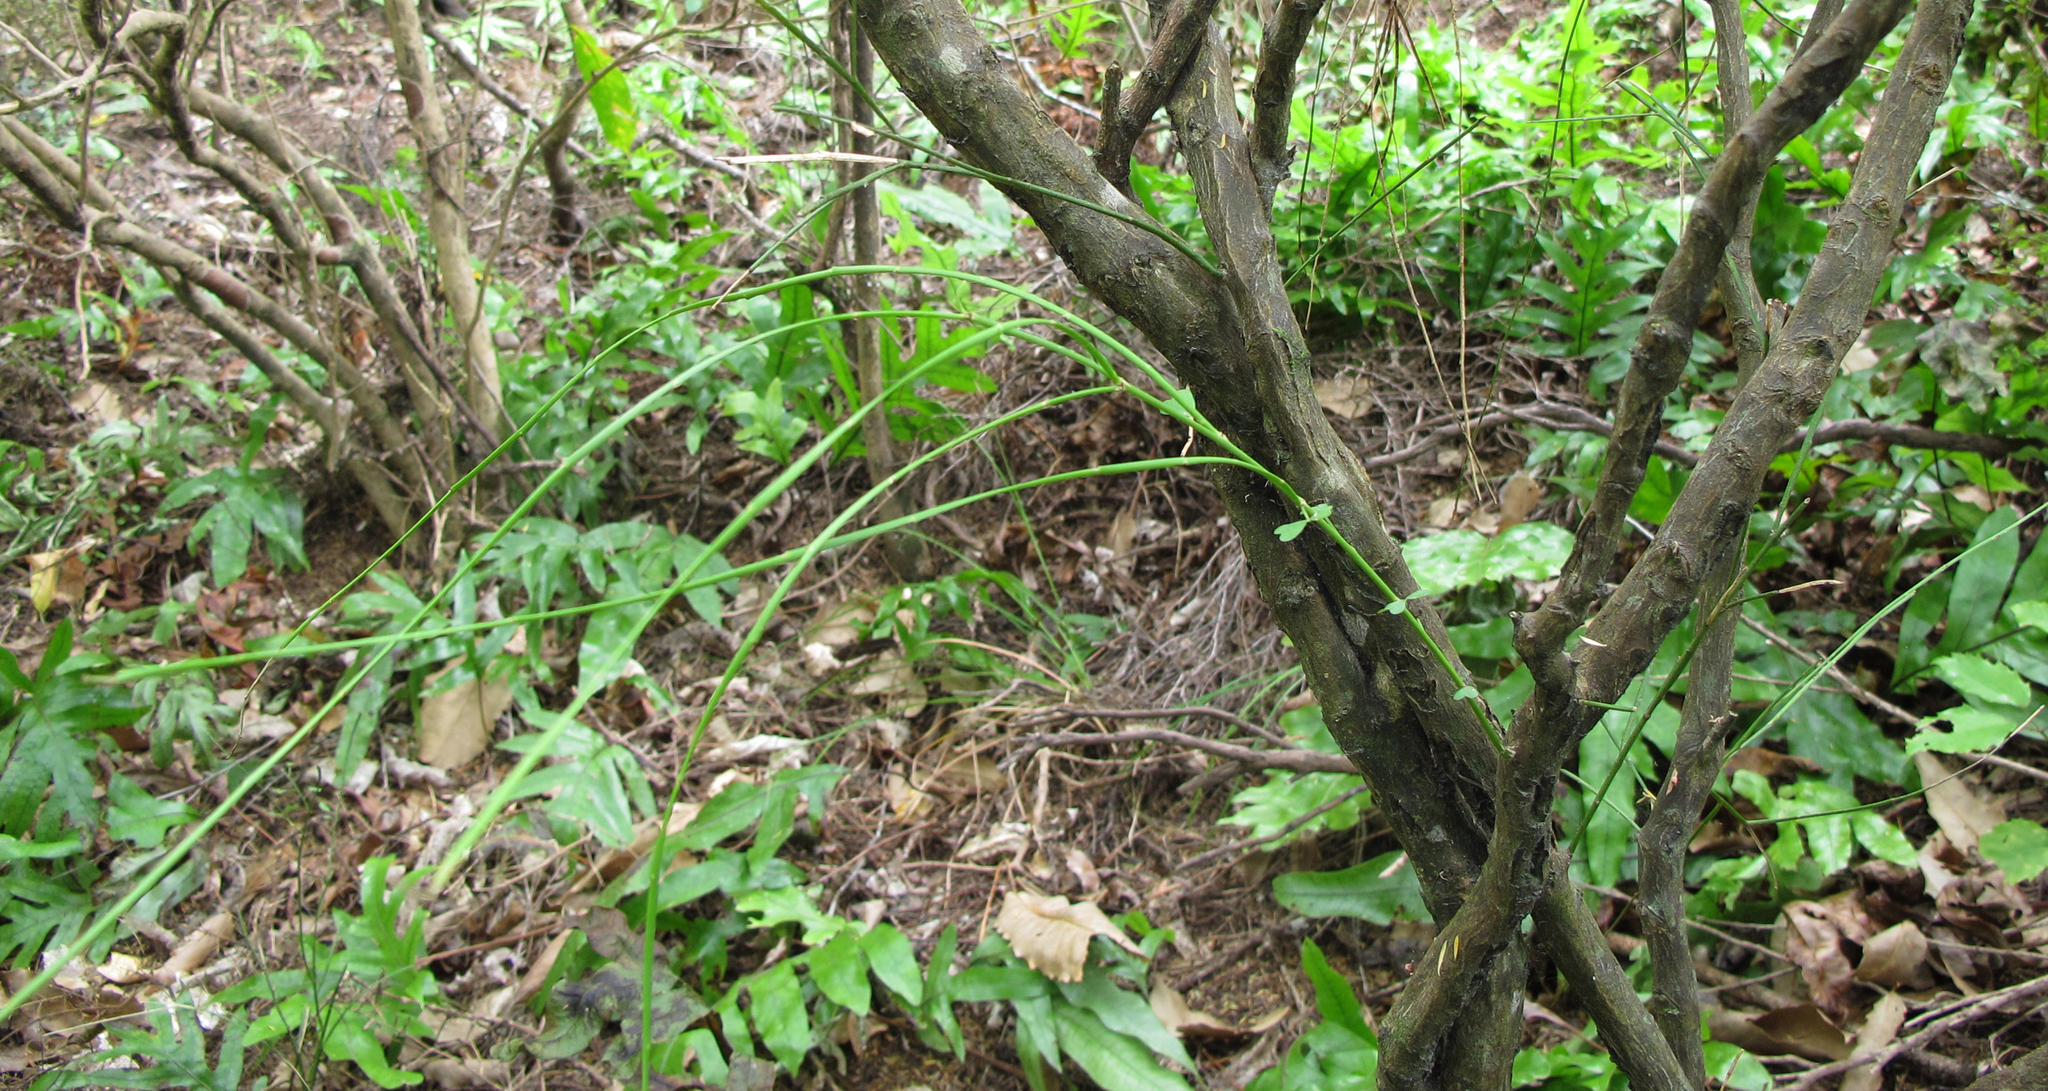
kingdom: Plantae
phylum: Tracheophyta
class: Magnoliopsida
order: Fabales
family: Fabaceae
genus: Carmichaelia
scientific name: Carmichaelia australis
